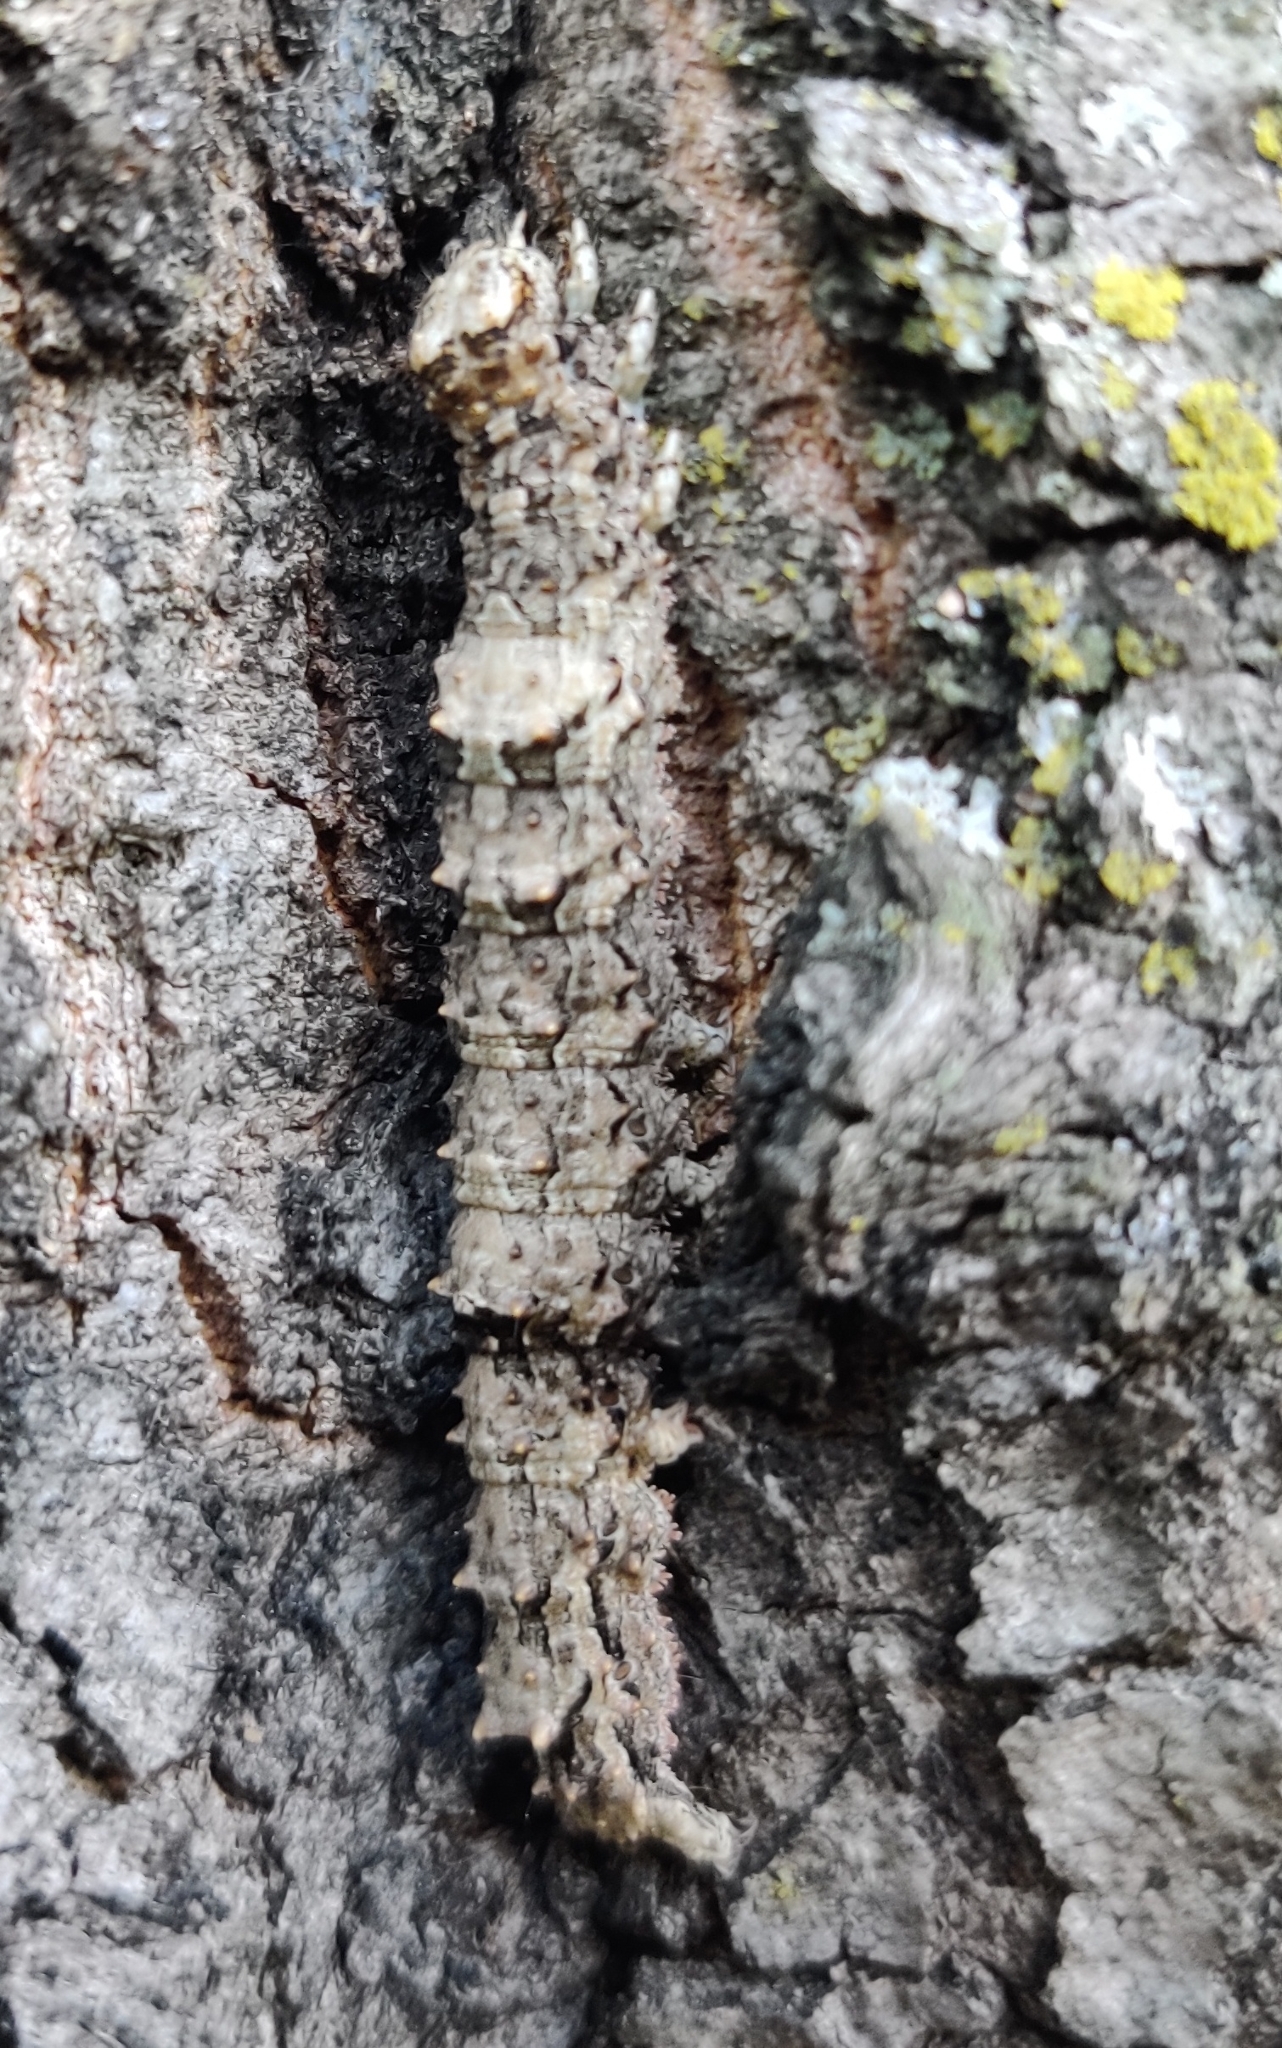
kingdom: Animalia
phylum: Arthropoda
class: Insecta
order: Lepidoptera
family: Erebidae
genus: Catocala
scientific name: Catocala ilia
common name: Ilia underwing
